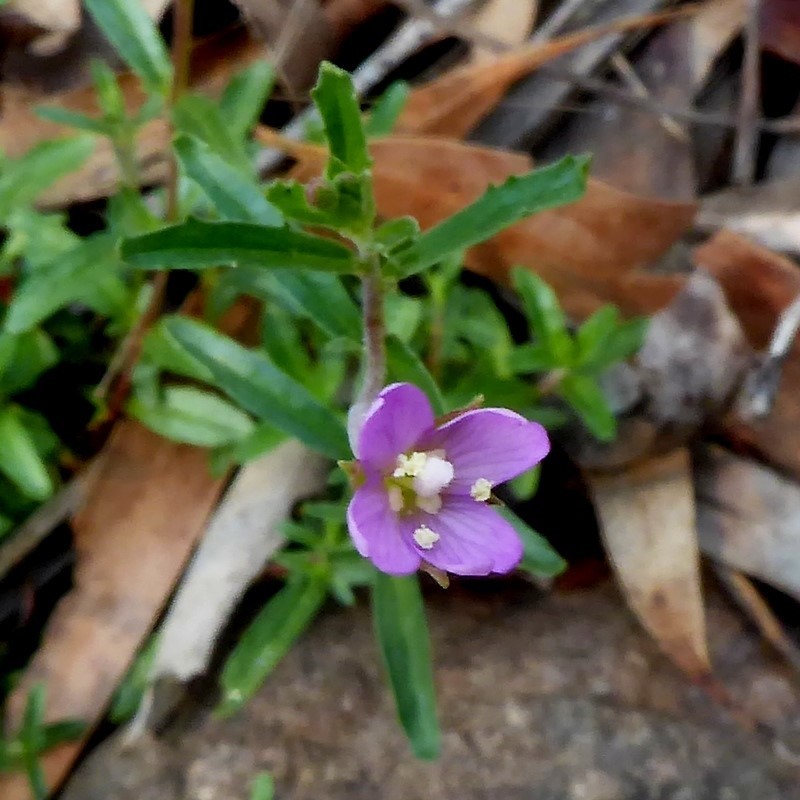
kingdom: Plantae
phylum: Tracheophyta
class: Magnoliopsida
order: Myrtales
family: Onagraceae
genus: Epilobium
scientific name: Epilobium billardierianum
